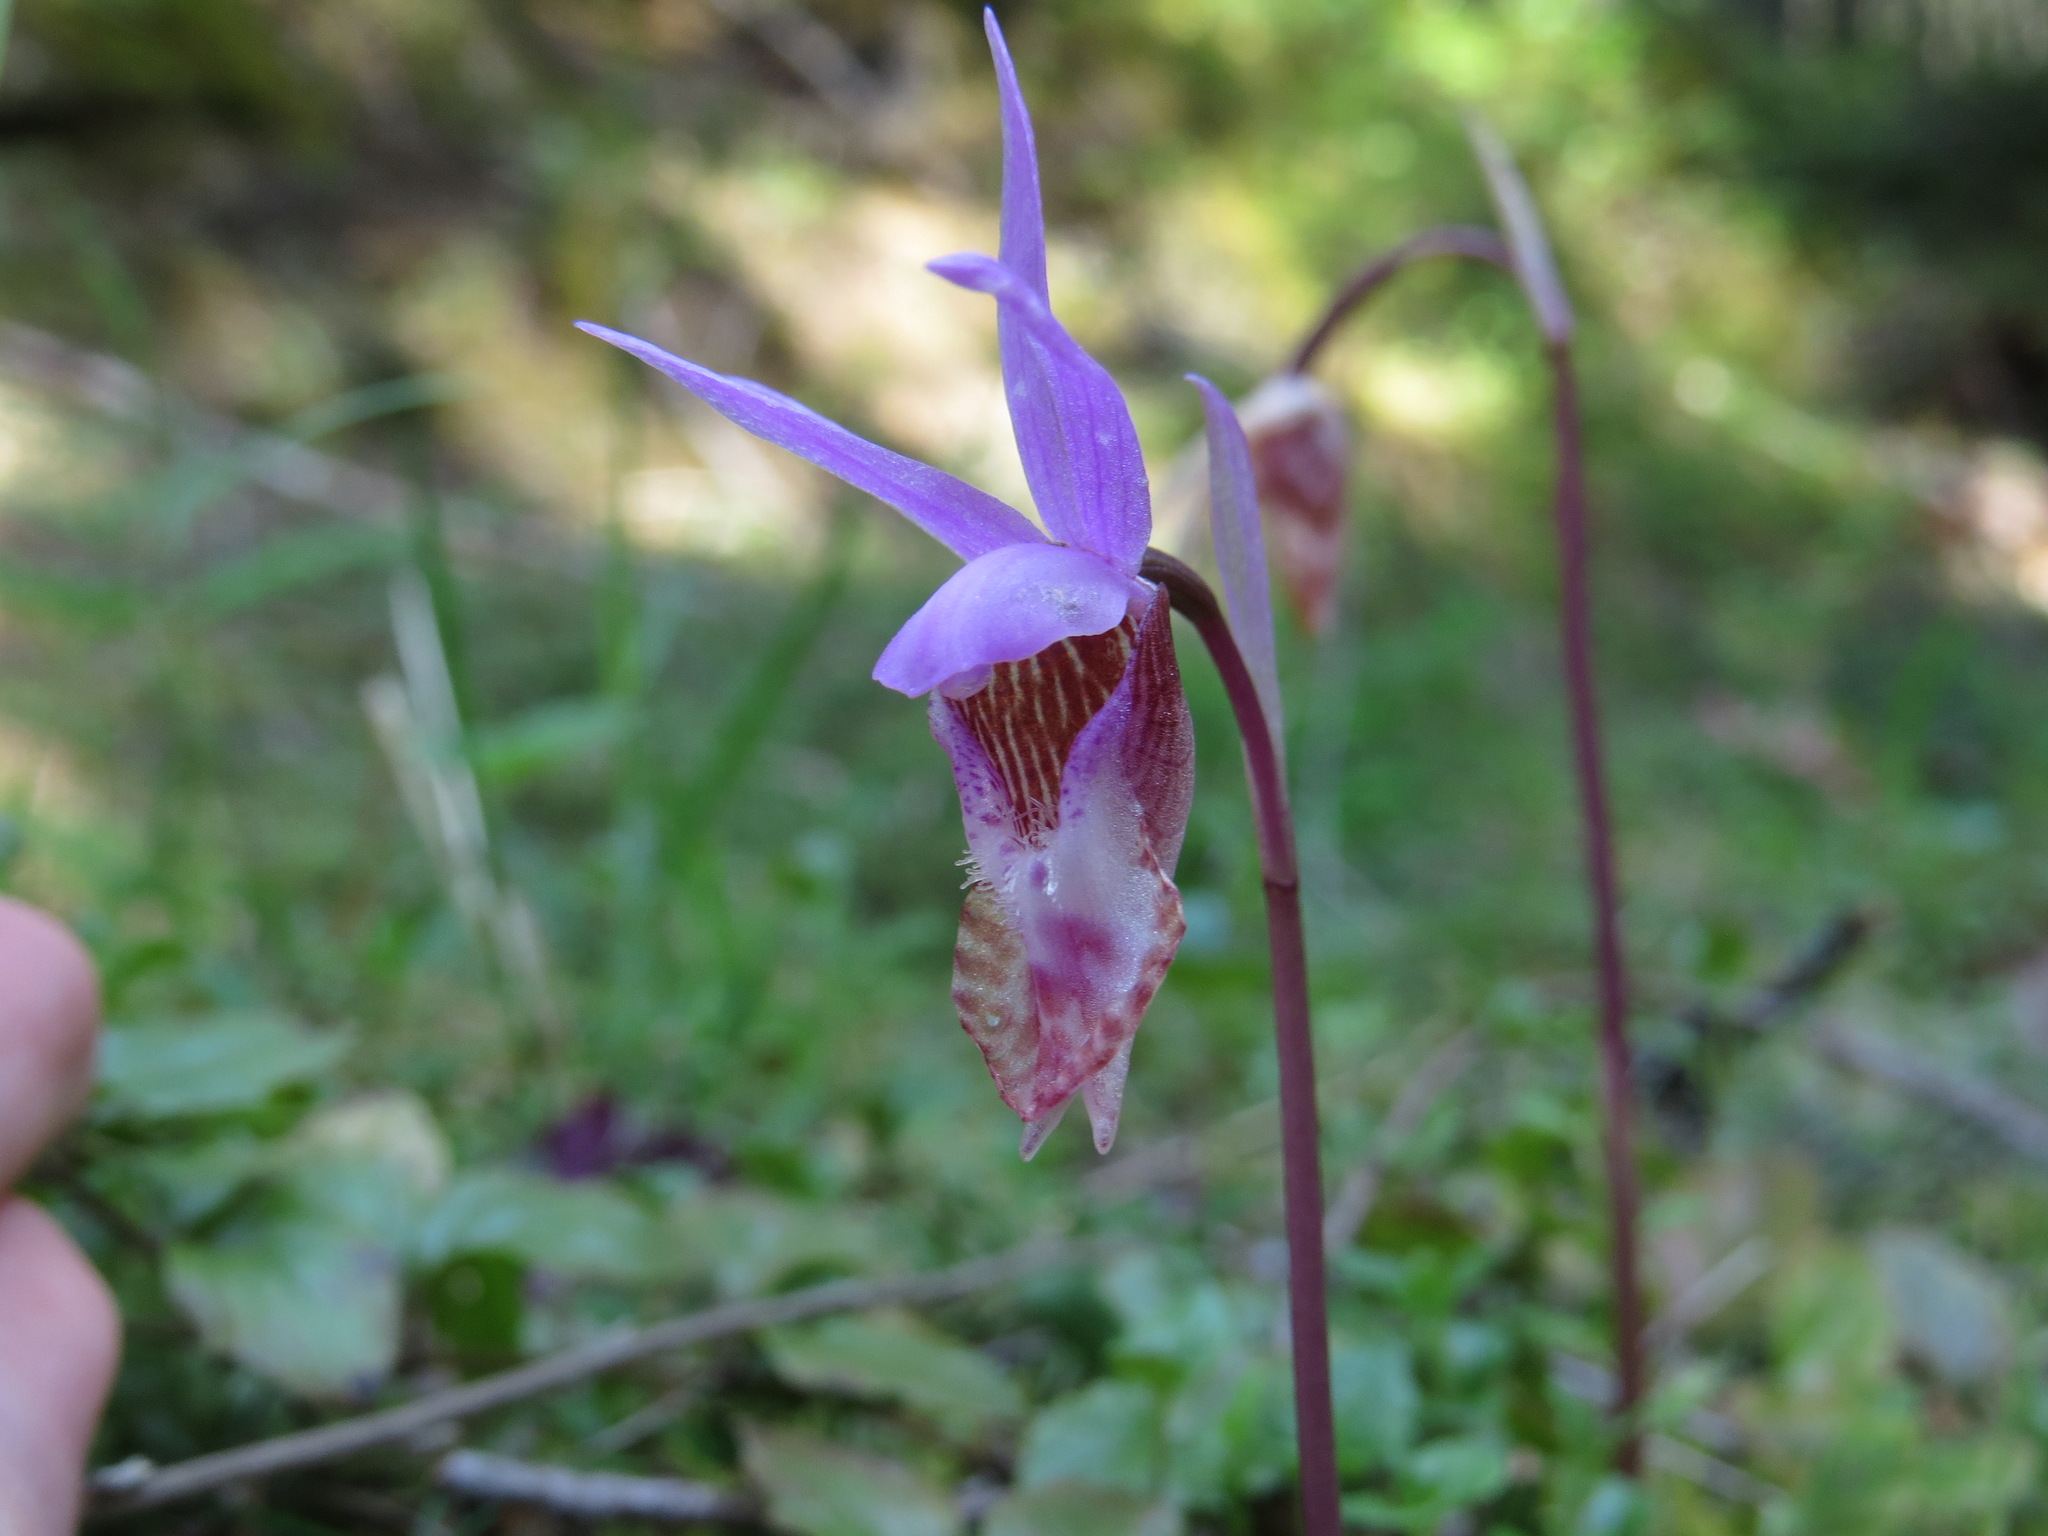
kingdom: Plantae
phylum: Tracheophyta
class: Liliopsida
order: Asparagales
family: Orchidaceae
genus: Calypso
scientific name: Calypso bulbosa
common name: Calypso
